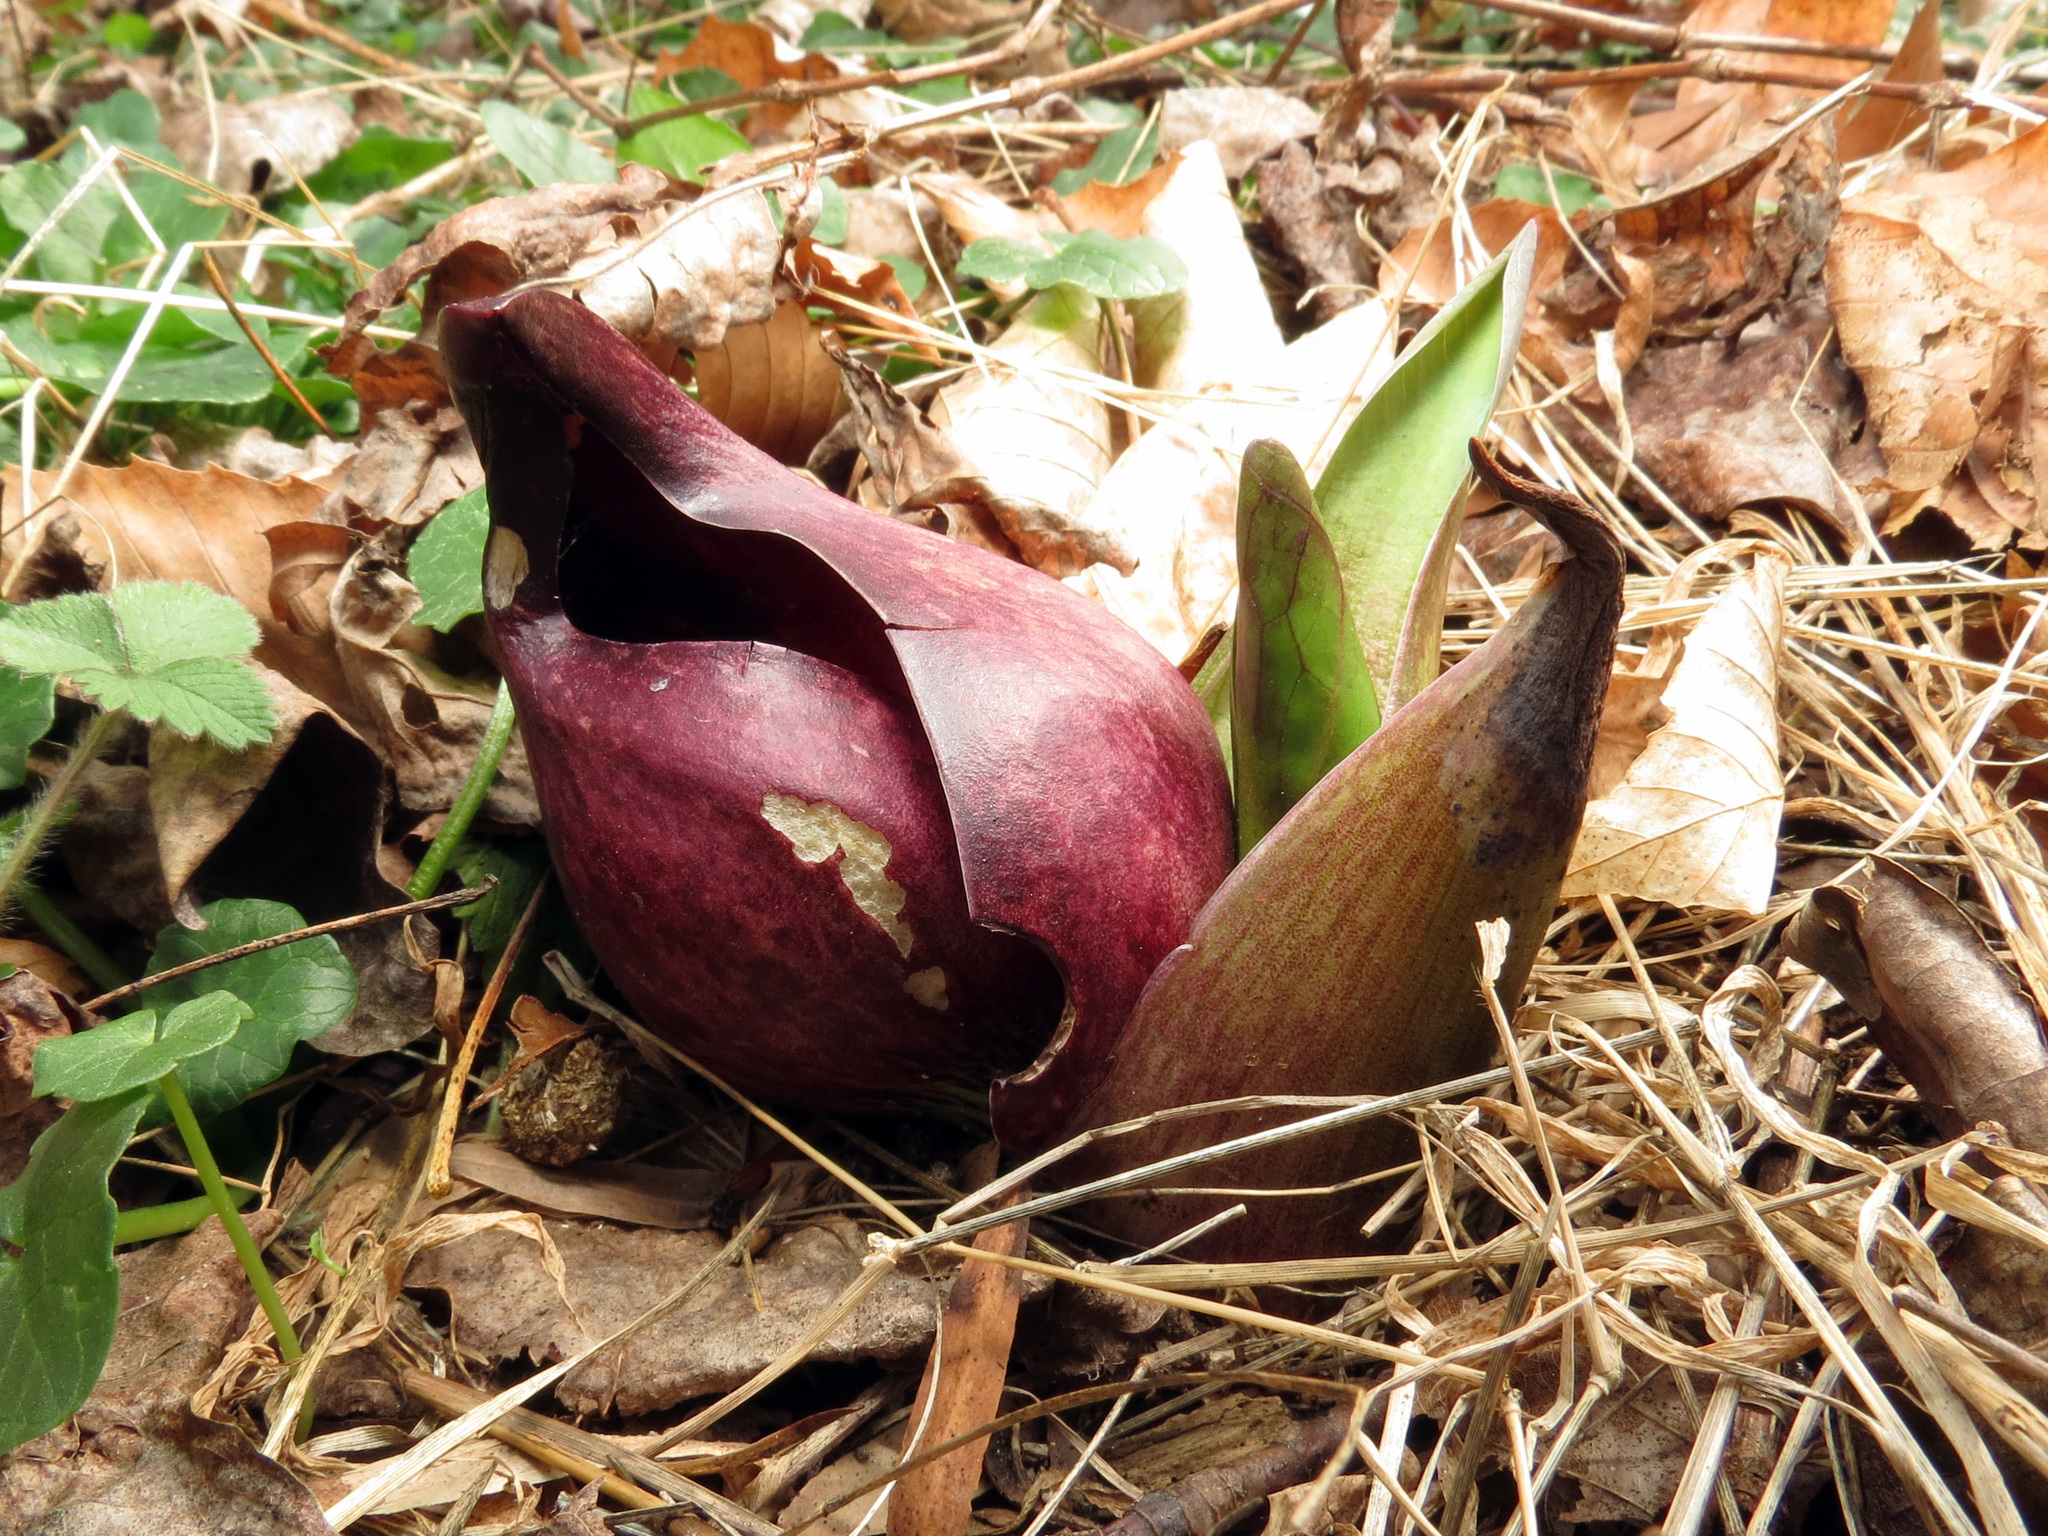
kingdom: Plantae
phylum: Tracheophyta
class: Liliopsida
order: Alismatales
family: Araceae
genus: Symplocarpus
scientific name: Symplocarpus foetidus
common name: Eastern skunk cabbage
